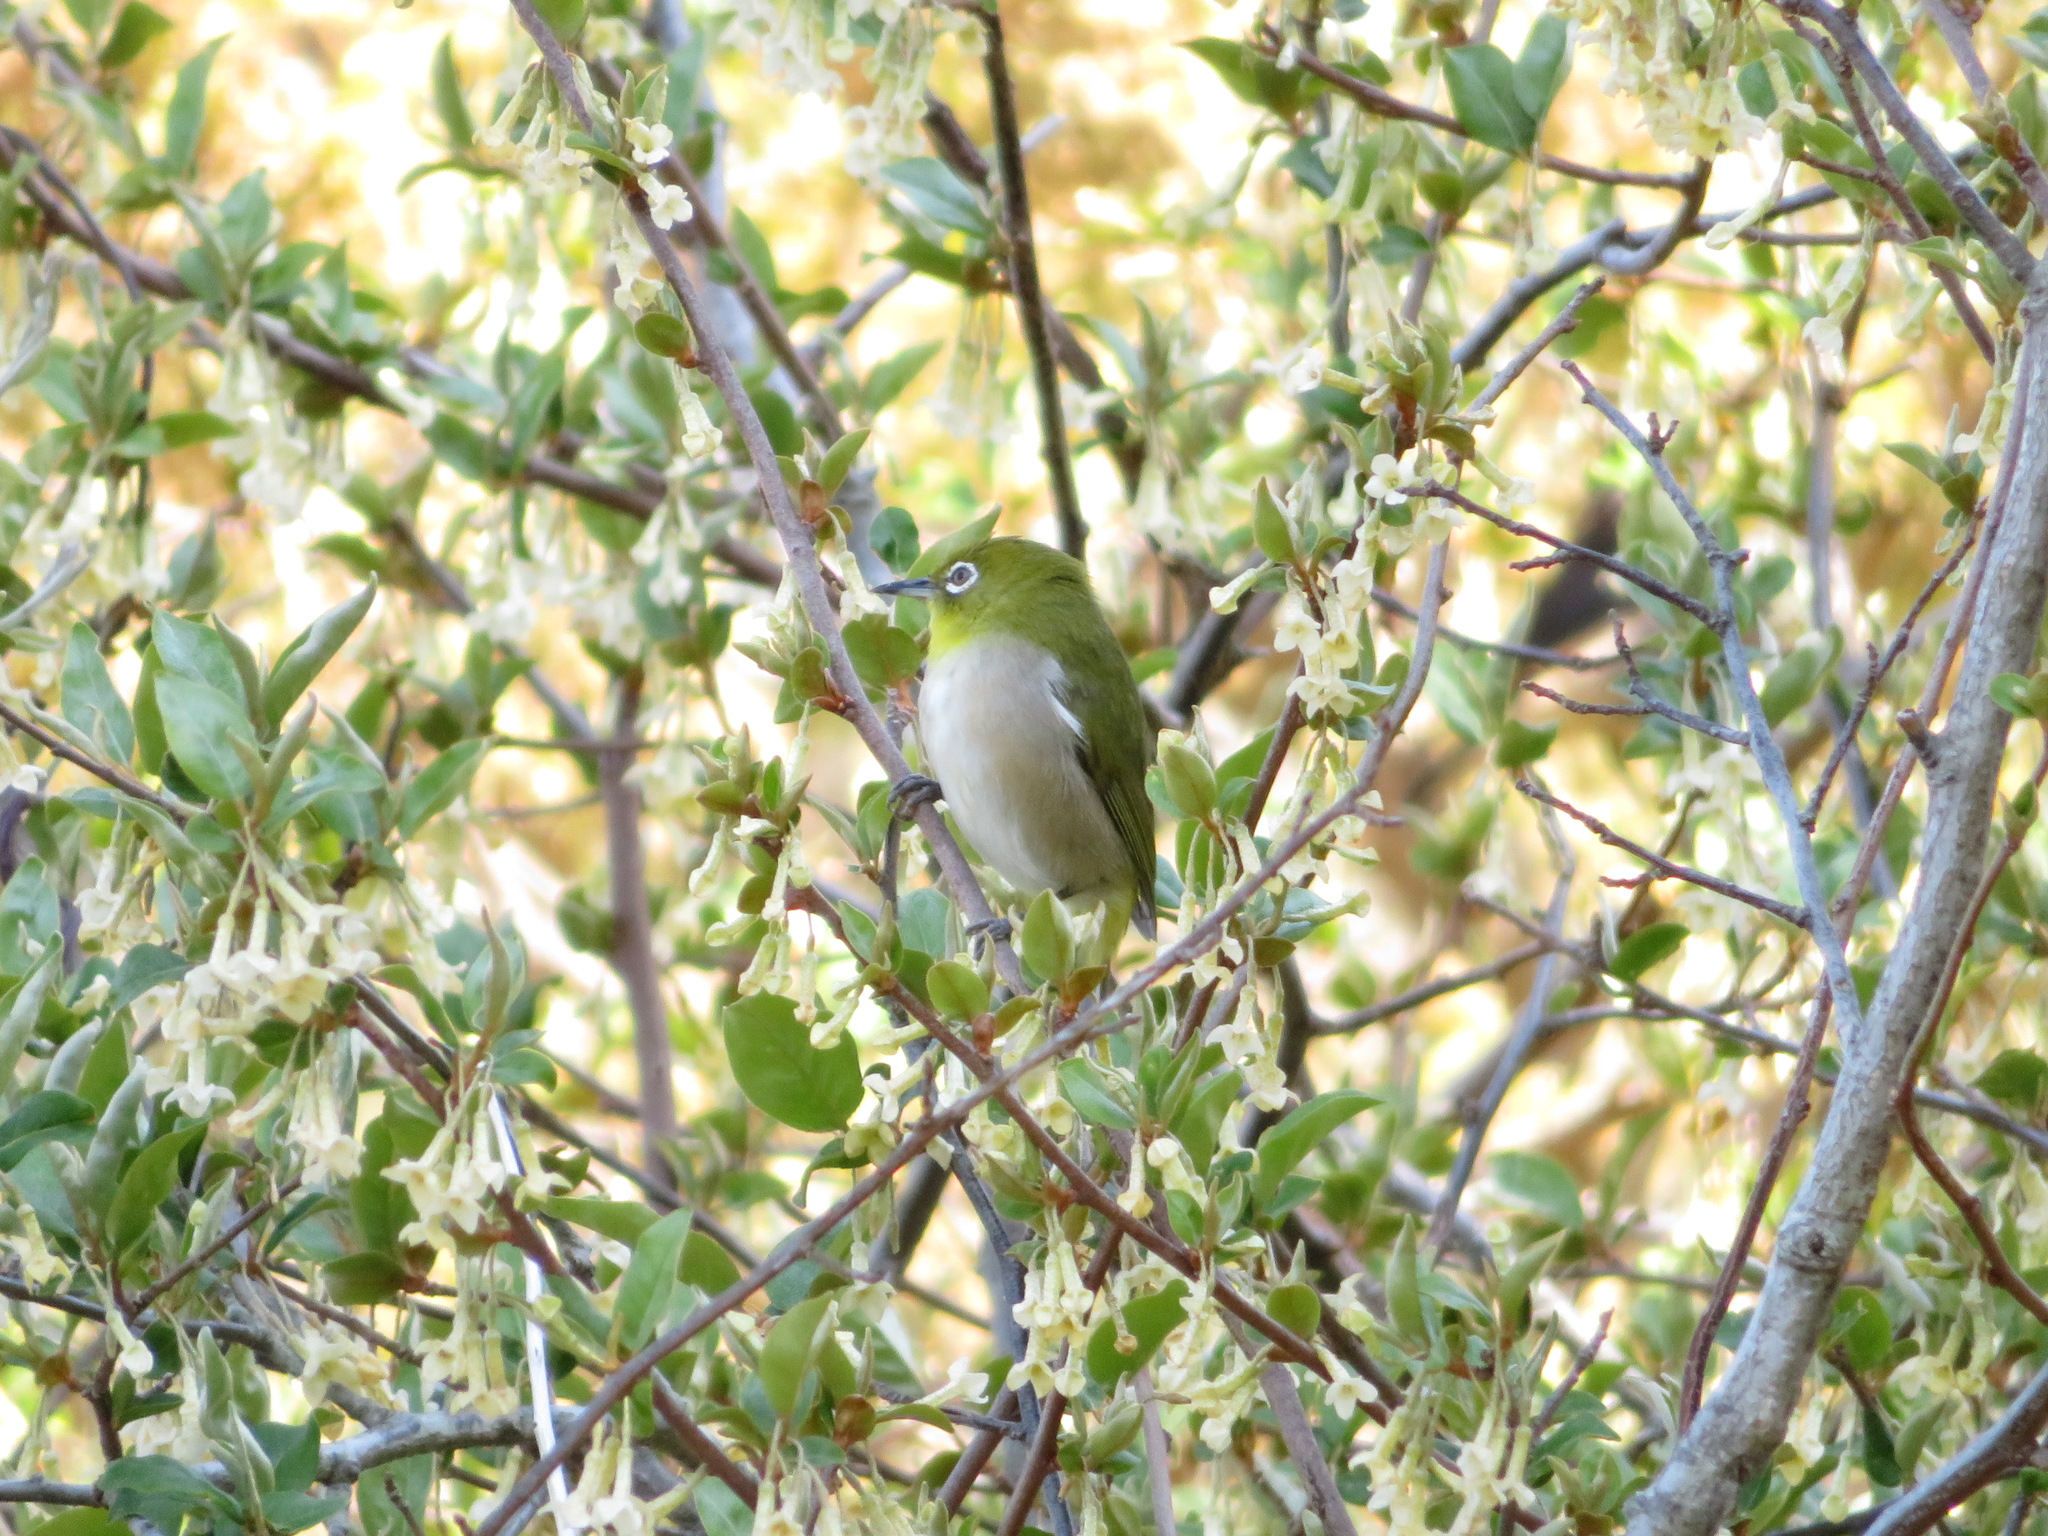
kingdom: Animalia
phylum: Chordata
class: Aves
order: Passeriformes
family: Zosteropidae
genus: Zosterops
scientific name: Zosterops japonicus
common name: Japanese white-eye
